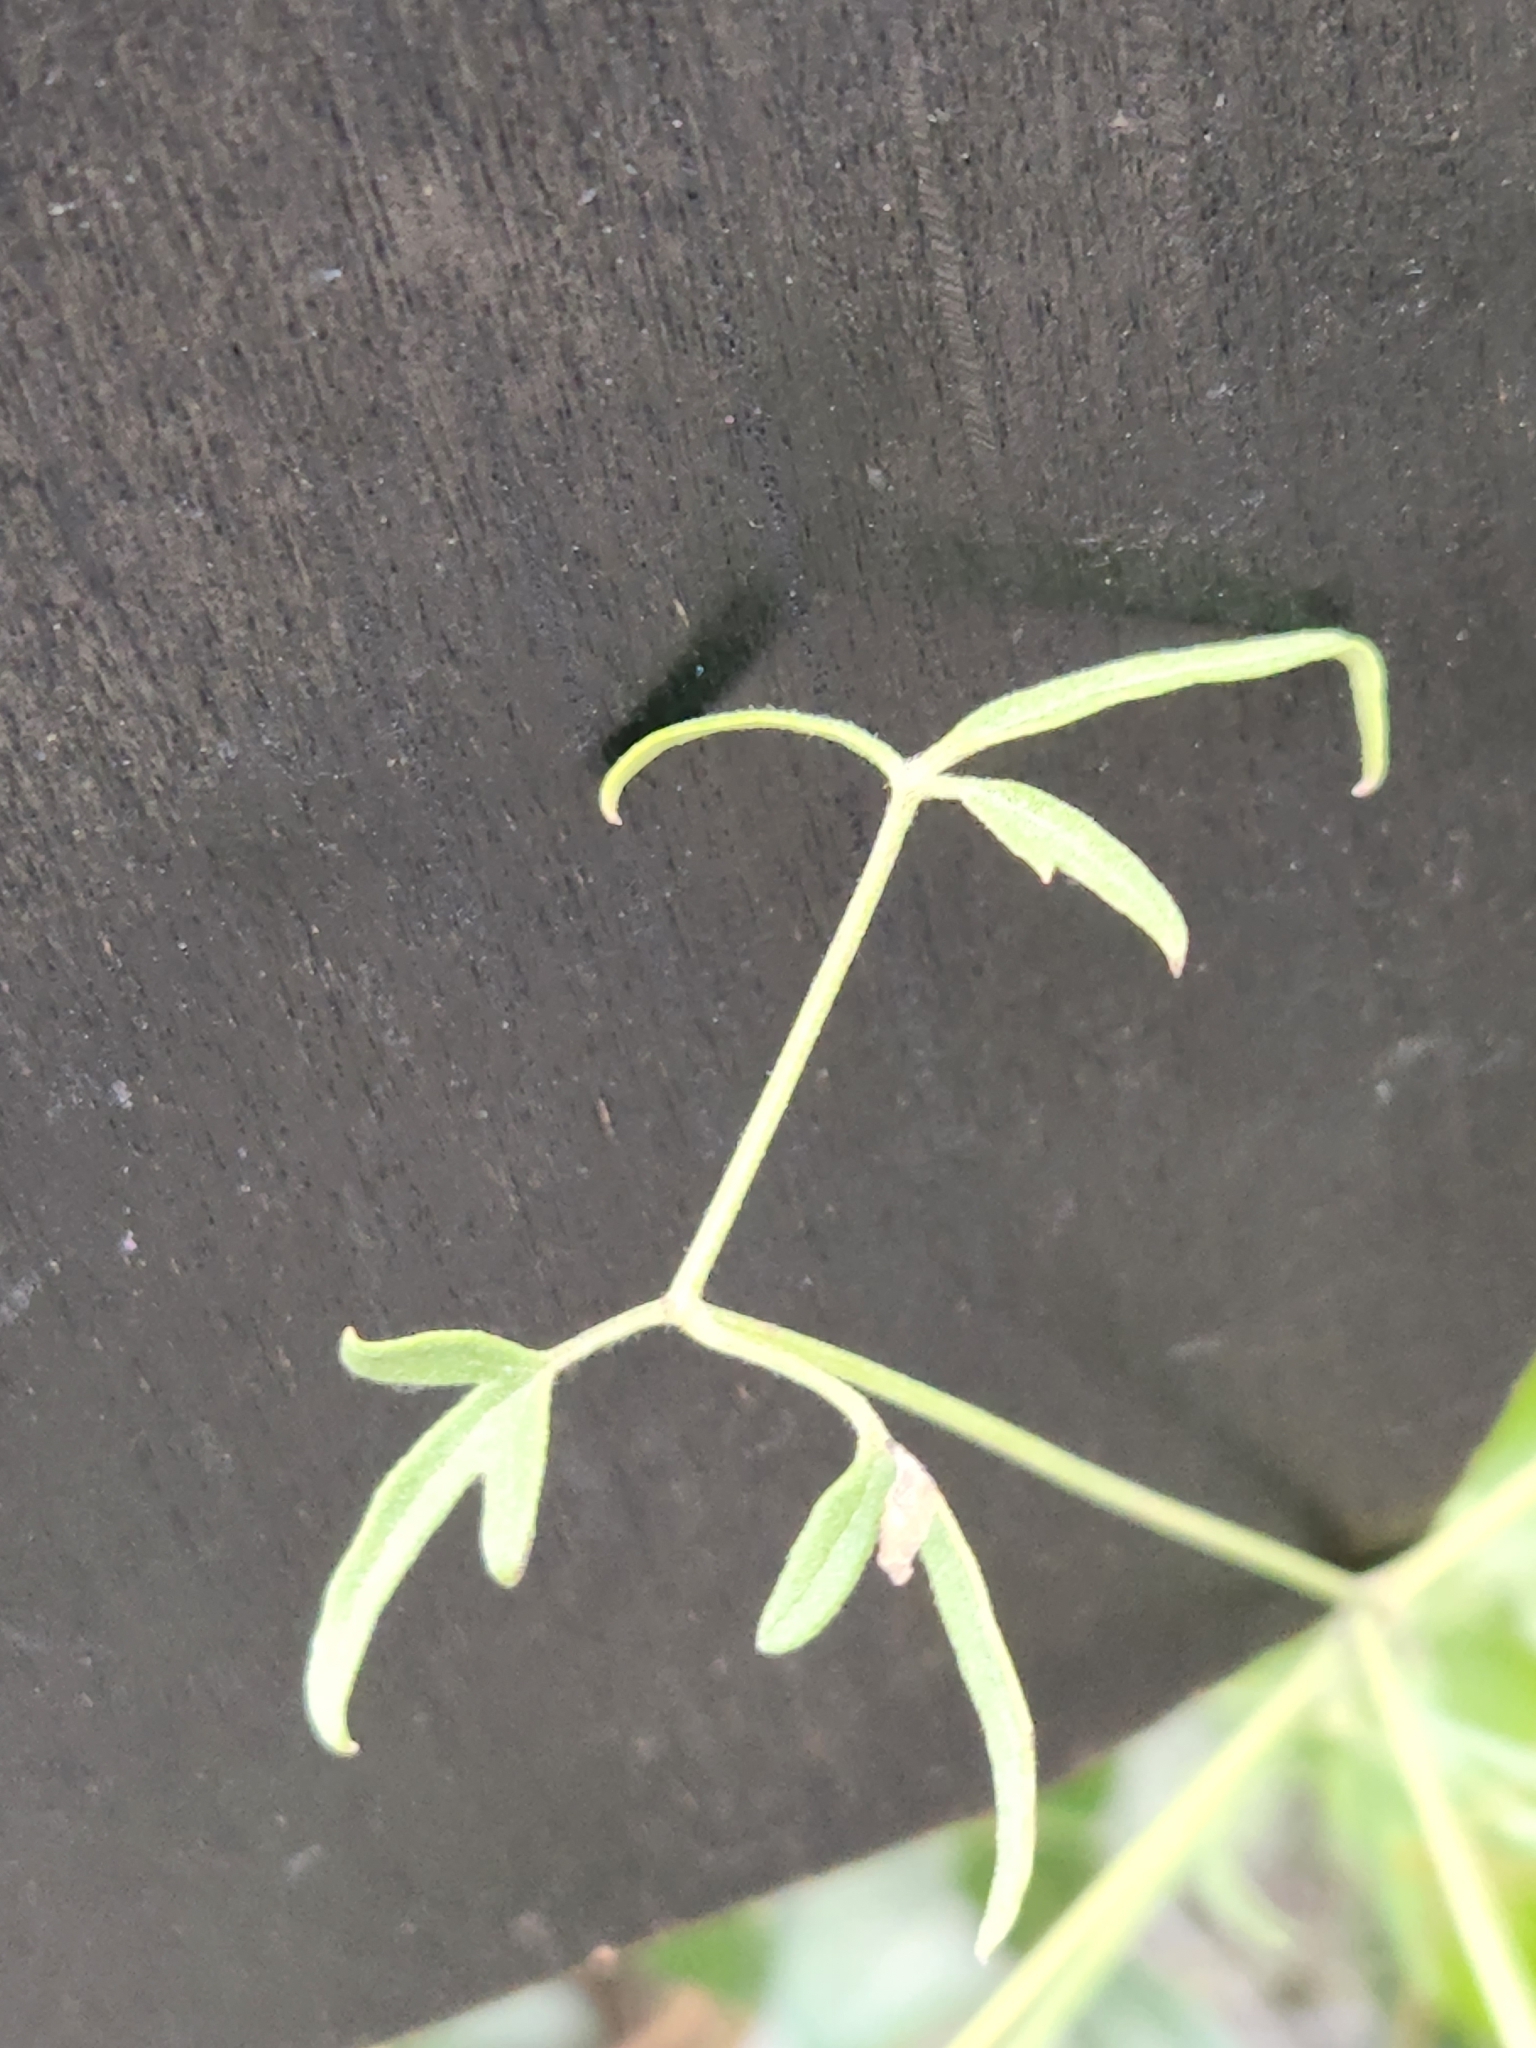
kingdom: Plantae
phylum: Tracheophyta
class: Magnoliopsida
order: Ranunculales
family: Ranunculaceae
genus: Clematis
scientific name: Clematis drummondii
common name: Texas virgin's bower
